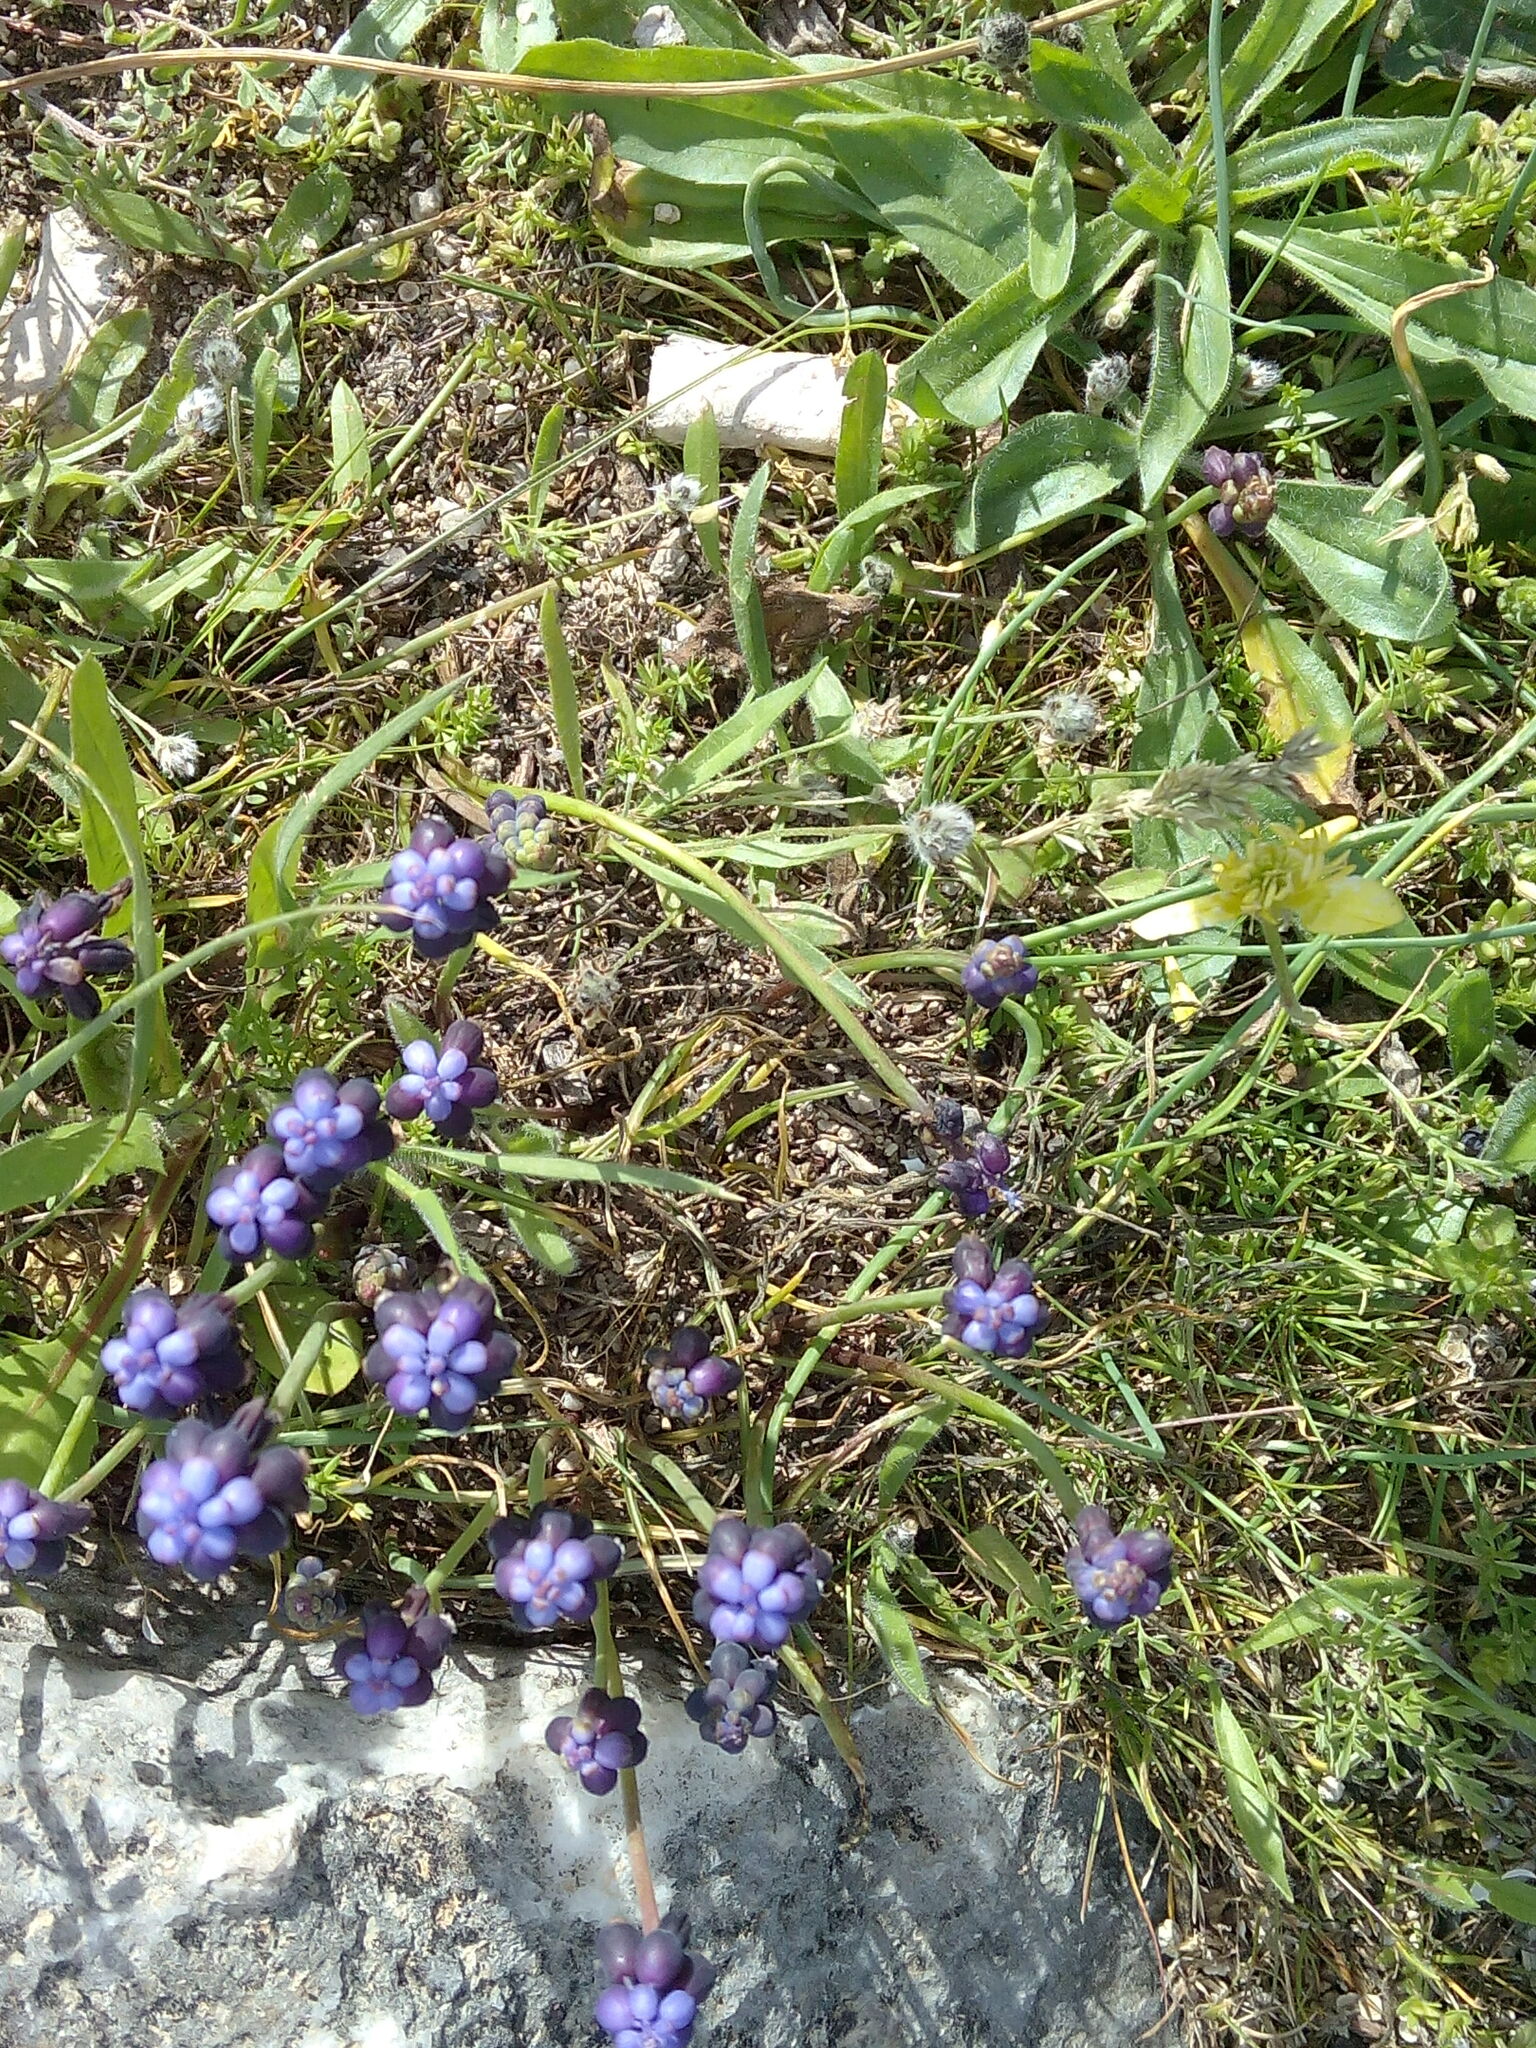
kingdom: Plantae
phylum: Tracheophyta
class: Liliopsida
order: Asparagales
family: Asparagaceae
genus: Muscari
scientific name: Muscari pulchellum
